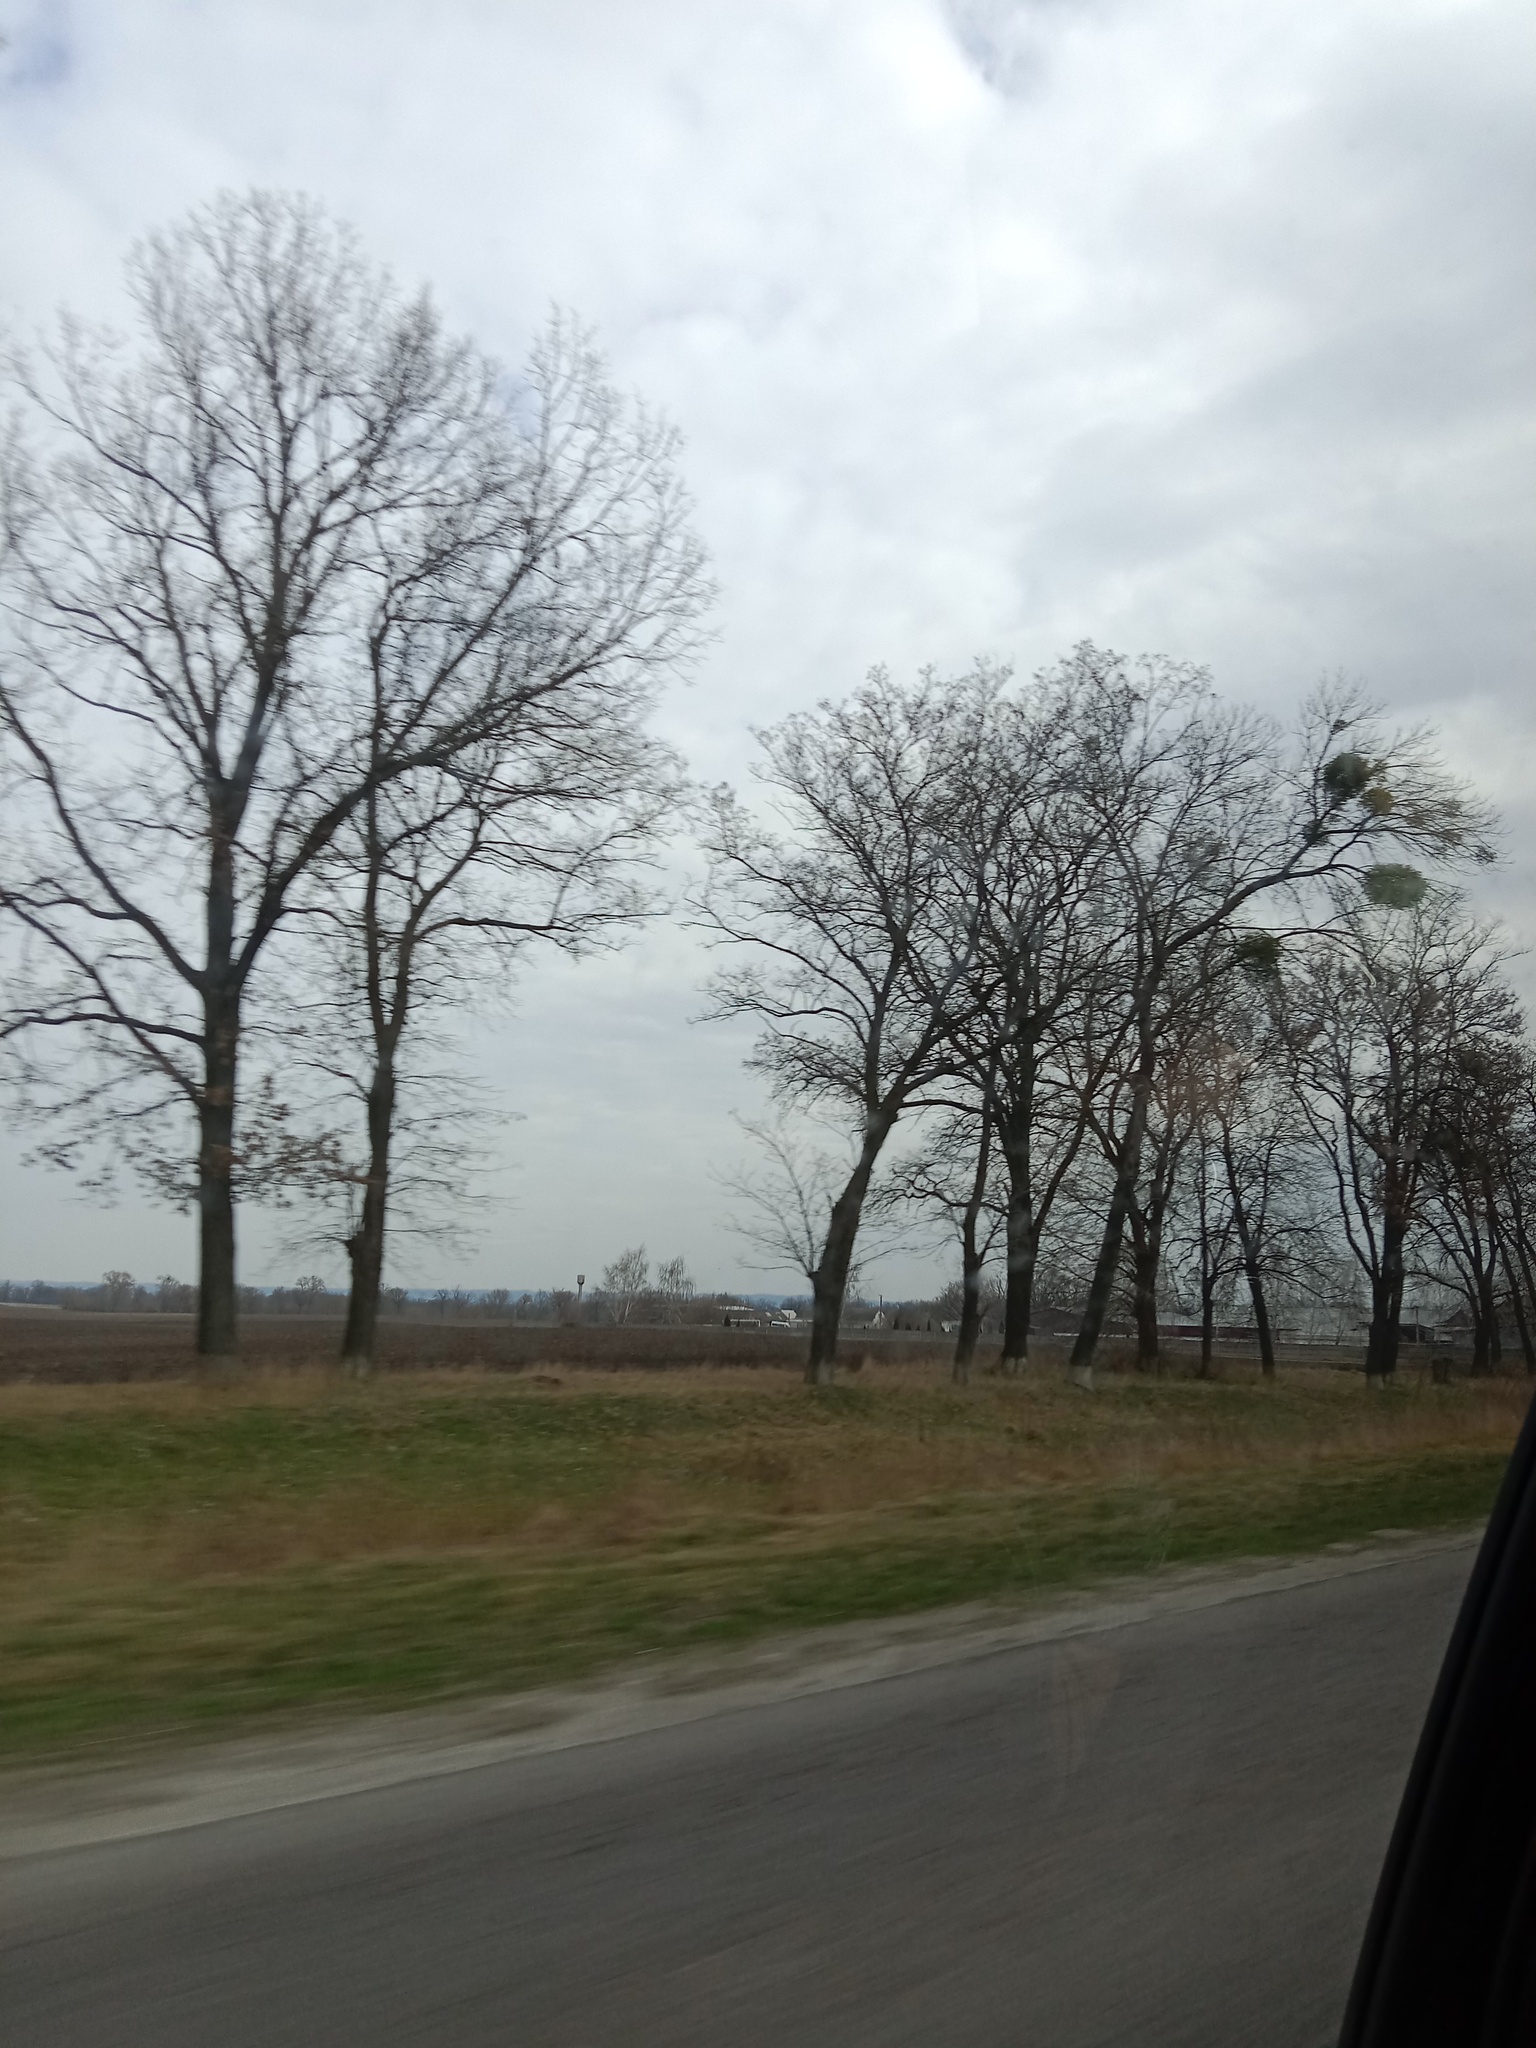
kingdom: Plantae
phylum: Tracheophyta
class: Magnoliopsida
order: Santalales
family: Viscaceae
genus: Viscum
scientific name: Viscum album
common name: Mistletoe
